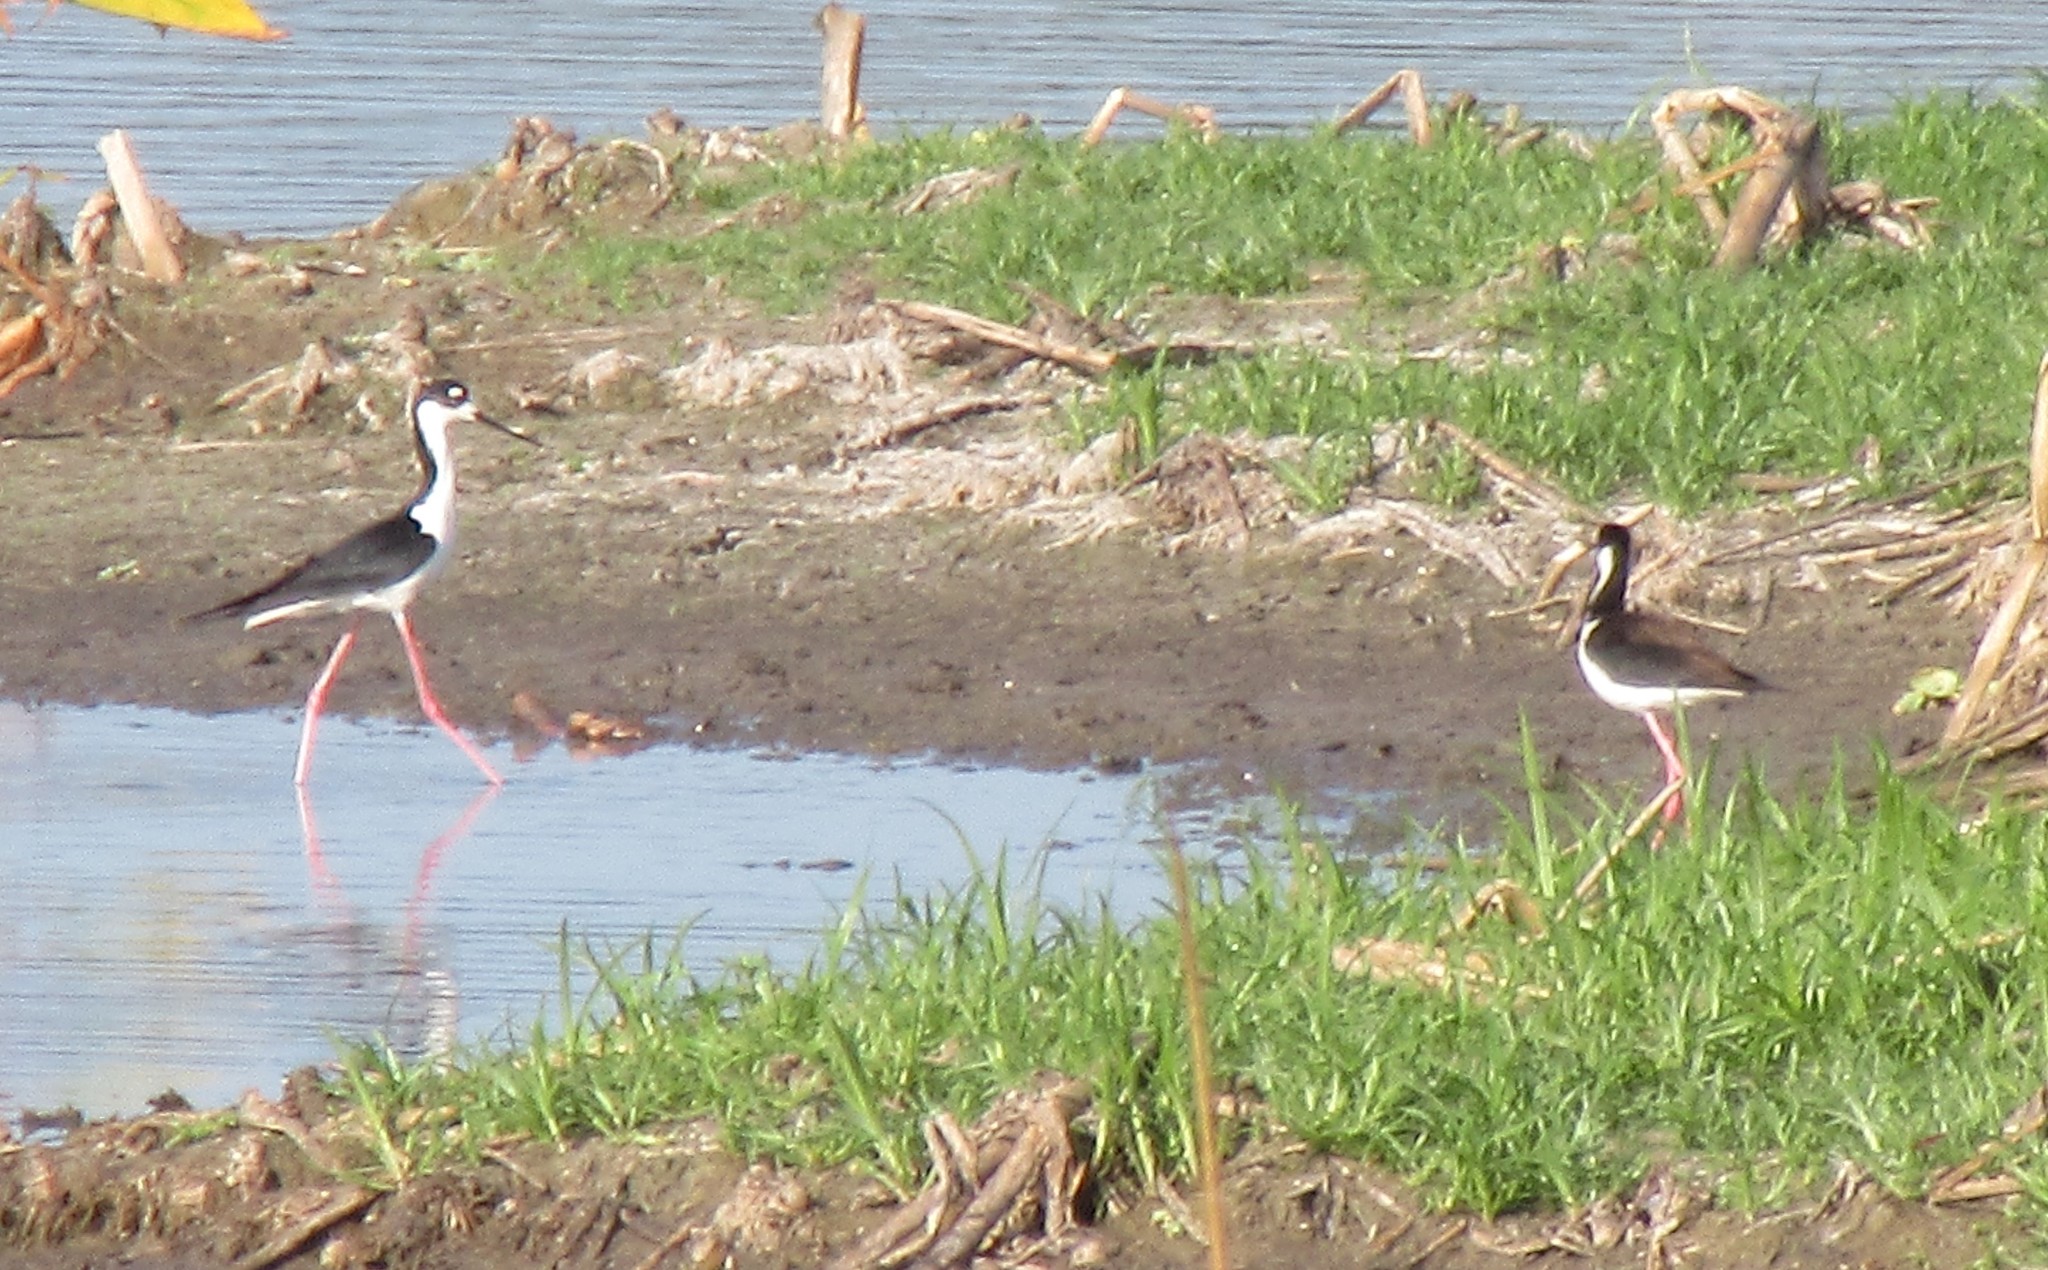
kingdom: Animalia
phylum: Chordata
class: Aves
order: Charadriiformes
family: Recurvirostridae
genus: Himantopus
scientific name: Himantopus mexicanus
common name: Black-necked stilt
